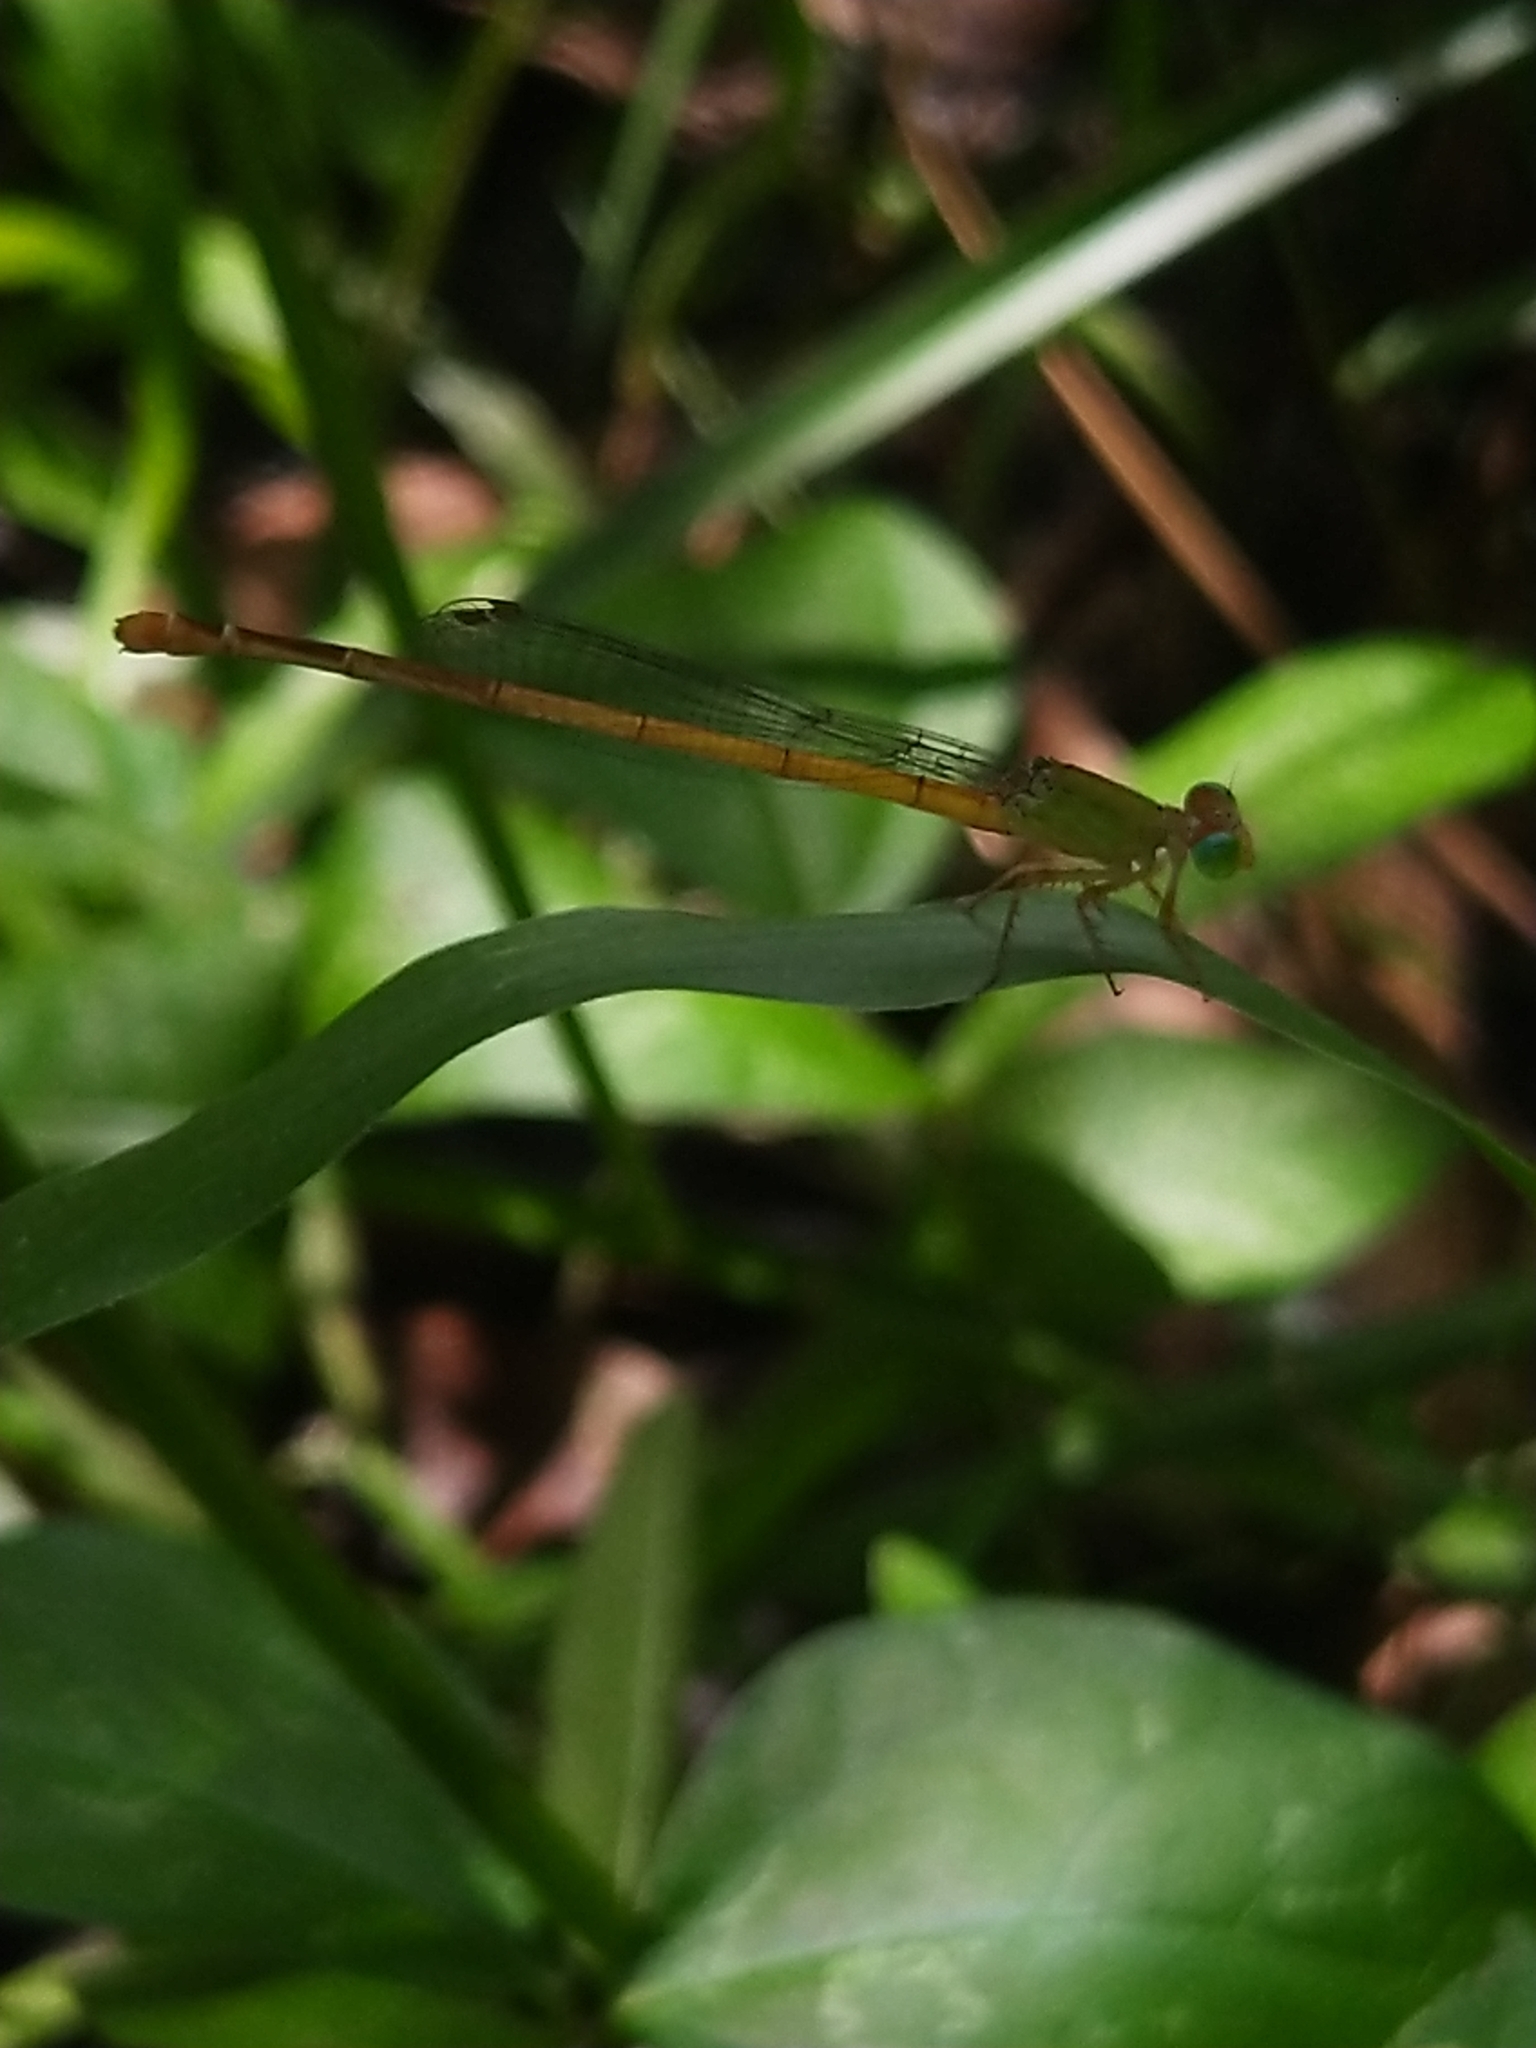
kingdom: Animalia
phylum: Arthropoda
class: Insecta
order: Odonata
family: Coenagrionidae
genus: Ceriagrion
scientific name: Ceriagrion coromandelianum
